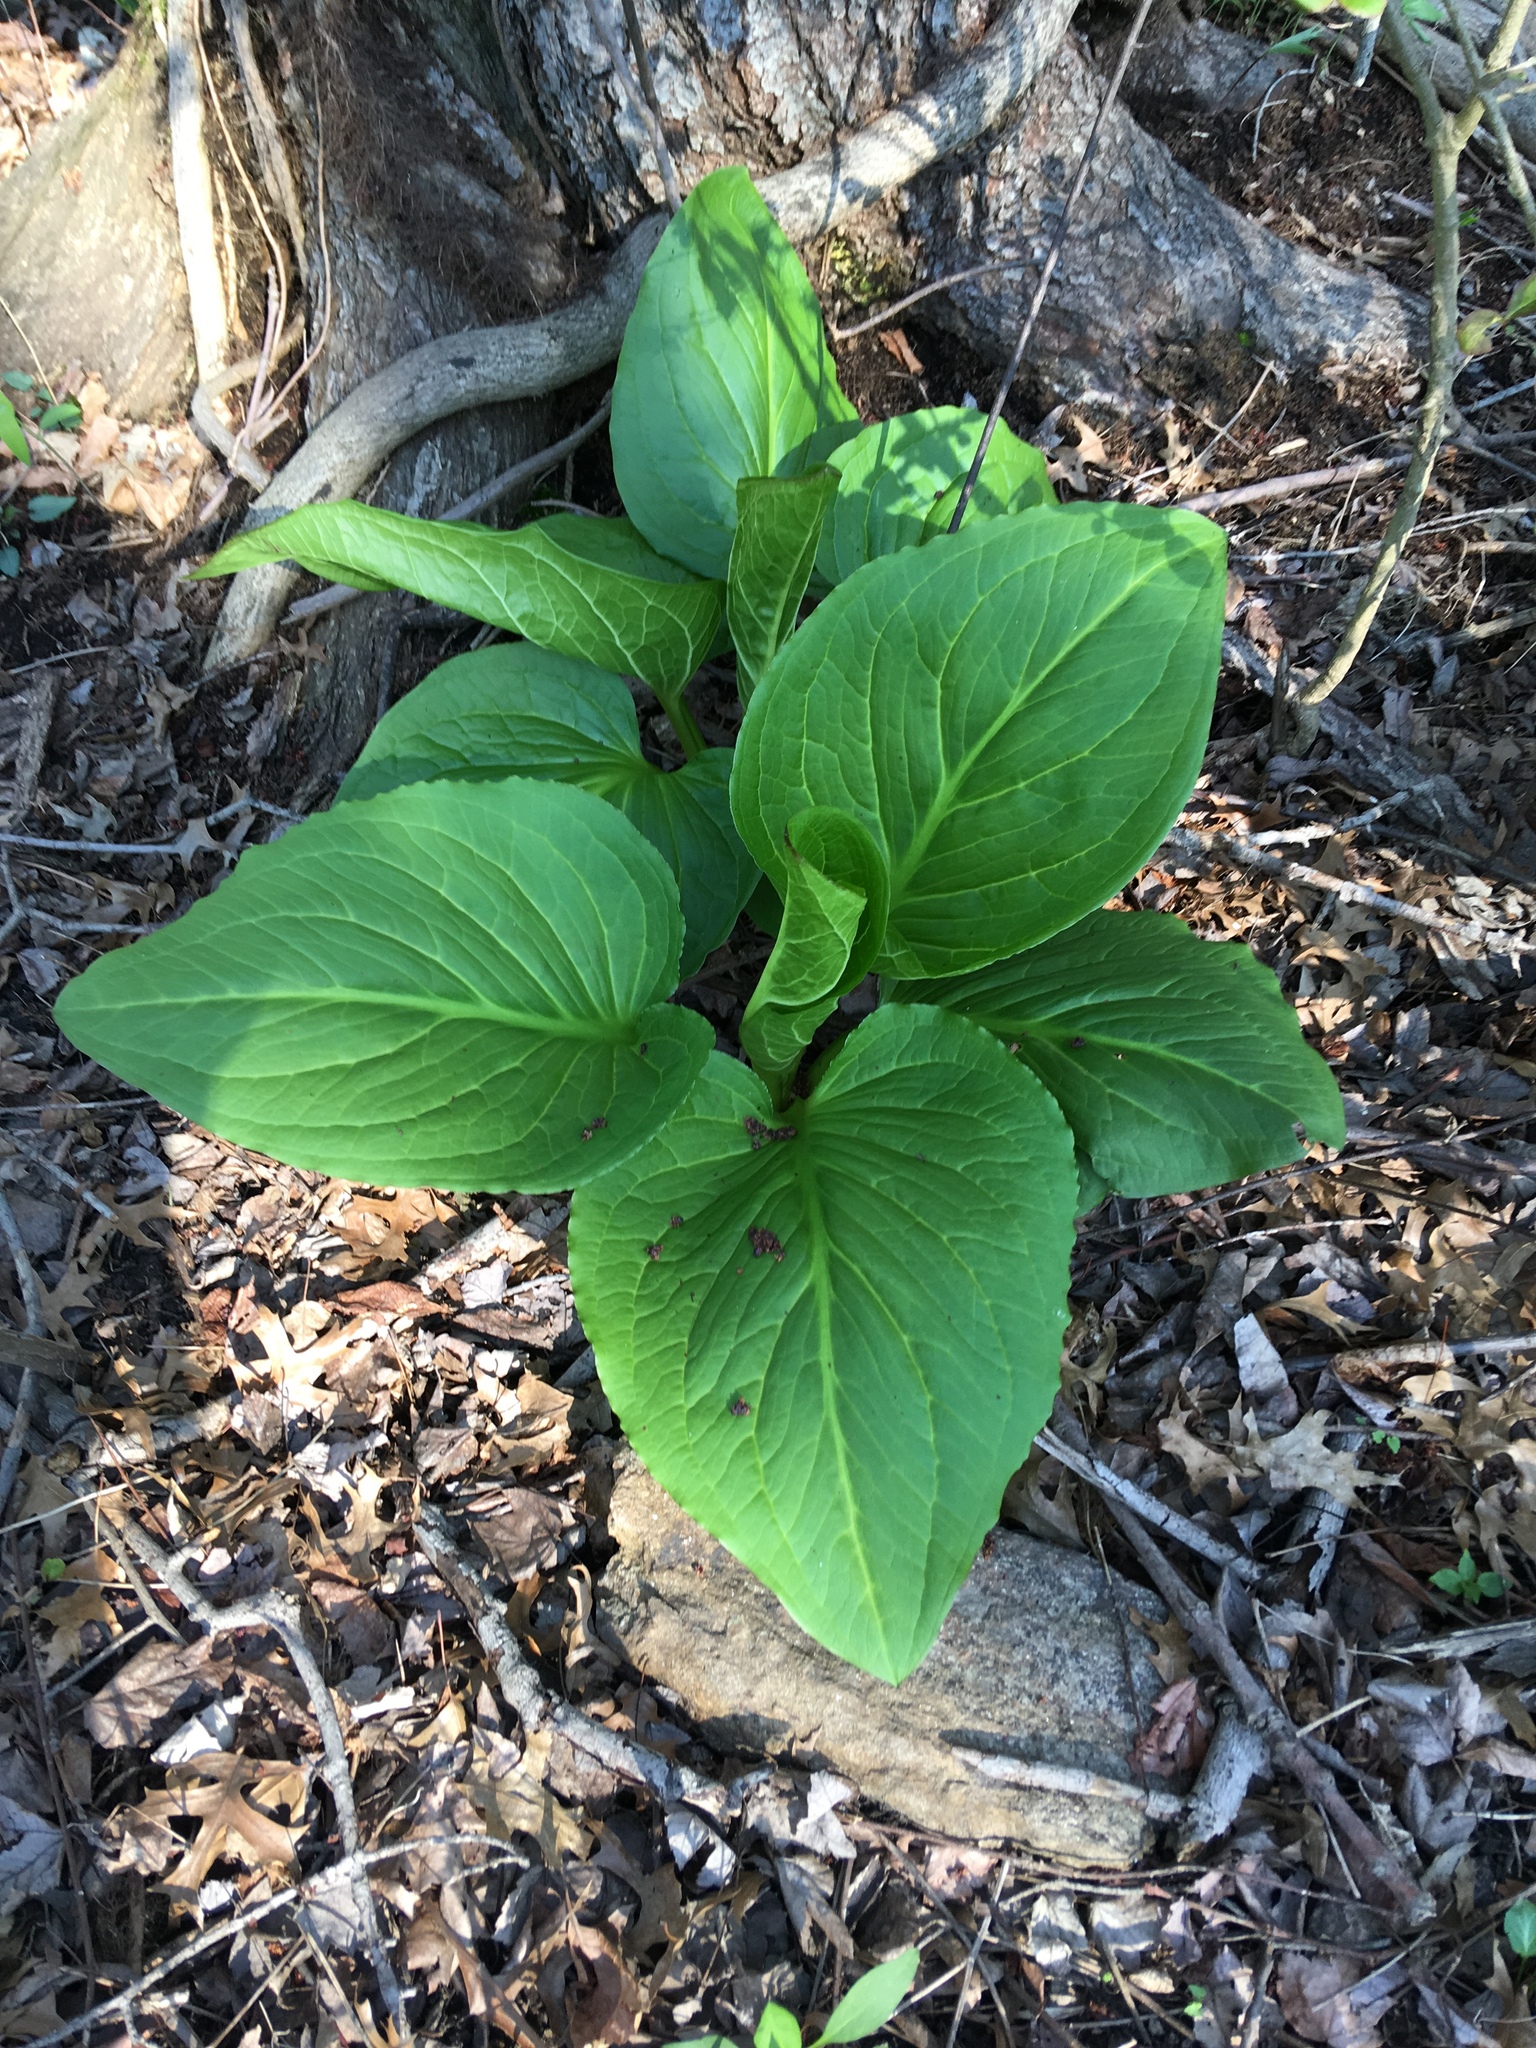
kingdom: Plantae
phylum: Tracheophyta
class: Liliopsida
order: Alismatales
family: Araceae
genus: Symplocarpus
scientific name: Symplocarpus foetidus
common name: Eastern skunk cabbage
